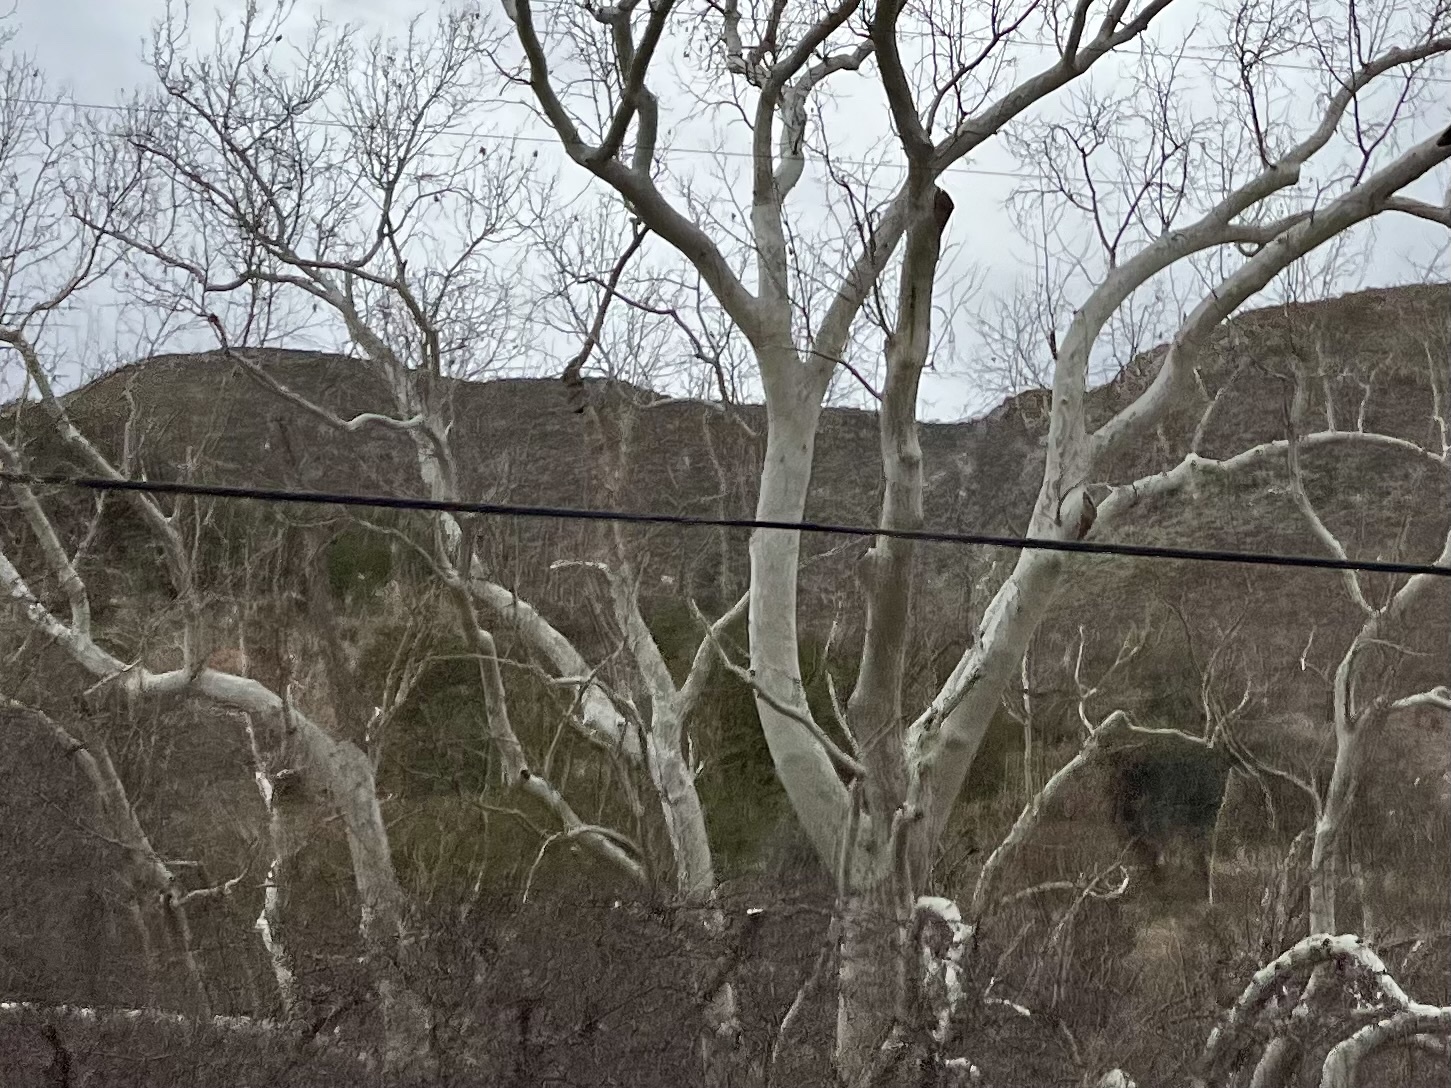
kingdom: Plantae
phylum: Tracheophyta
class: Magnoliopsida
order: Proteales
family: Platanaceae
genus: Platanus
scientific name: Platanus wrightii
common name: Arizona sycamore
